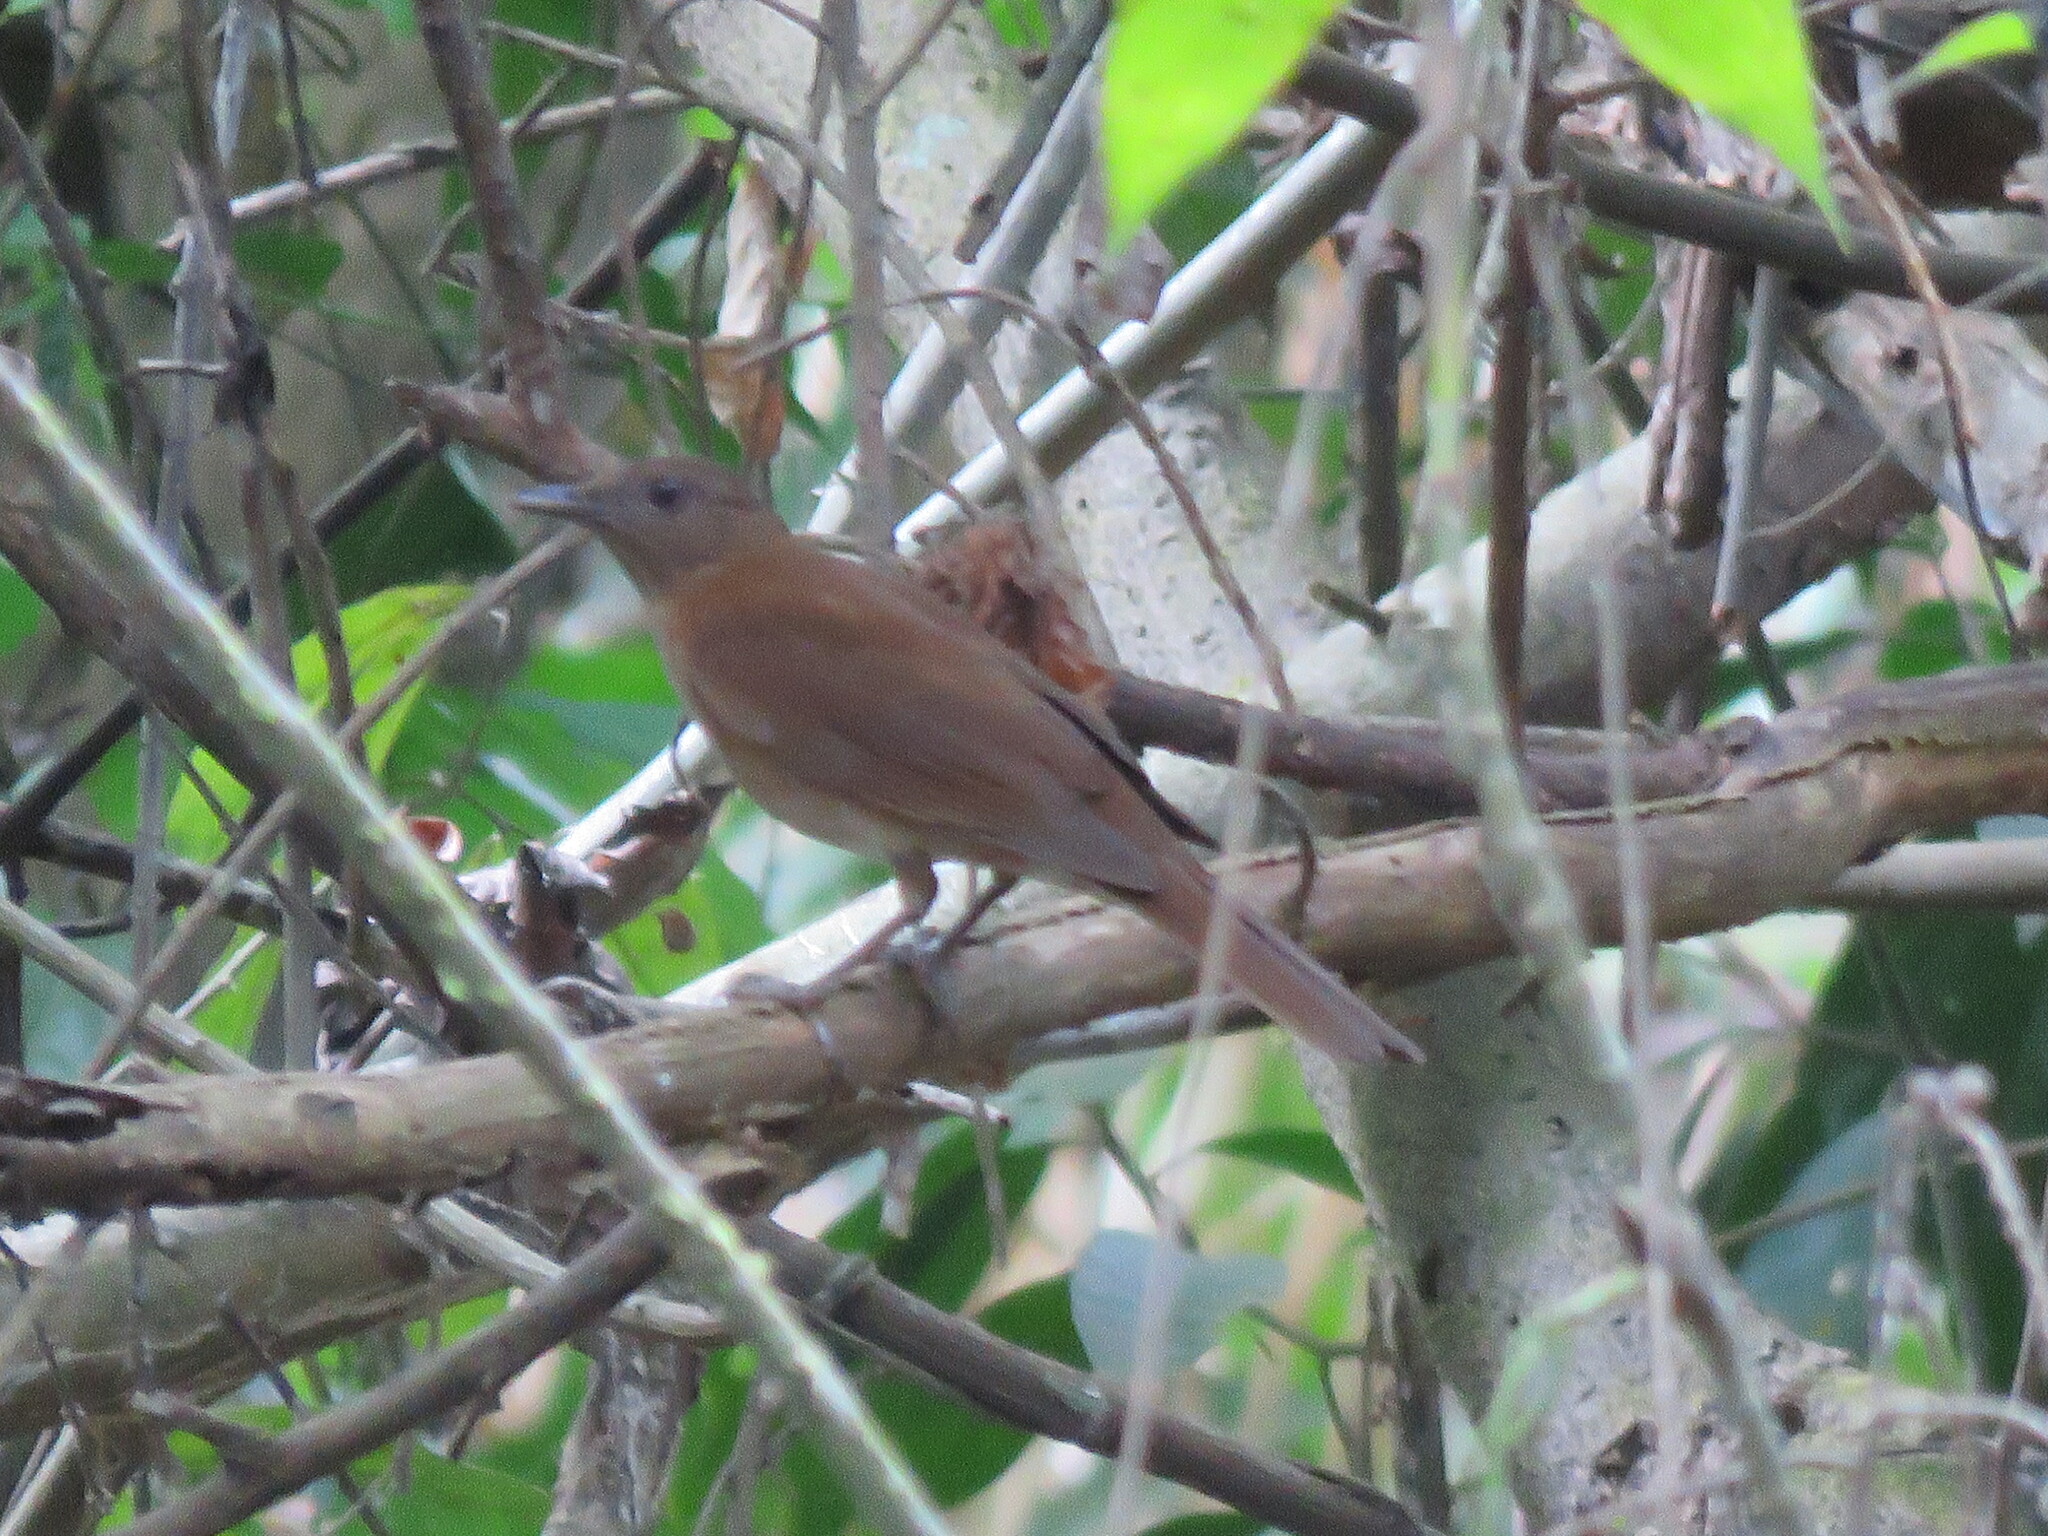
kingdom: Animalia
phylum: Chordata
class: Aves
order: Passeriformes
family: Turdidae
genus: Turdus
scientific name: Turdus hauxwelli
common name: Hauxwell's thrush
